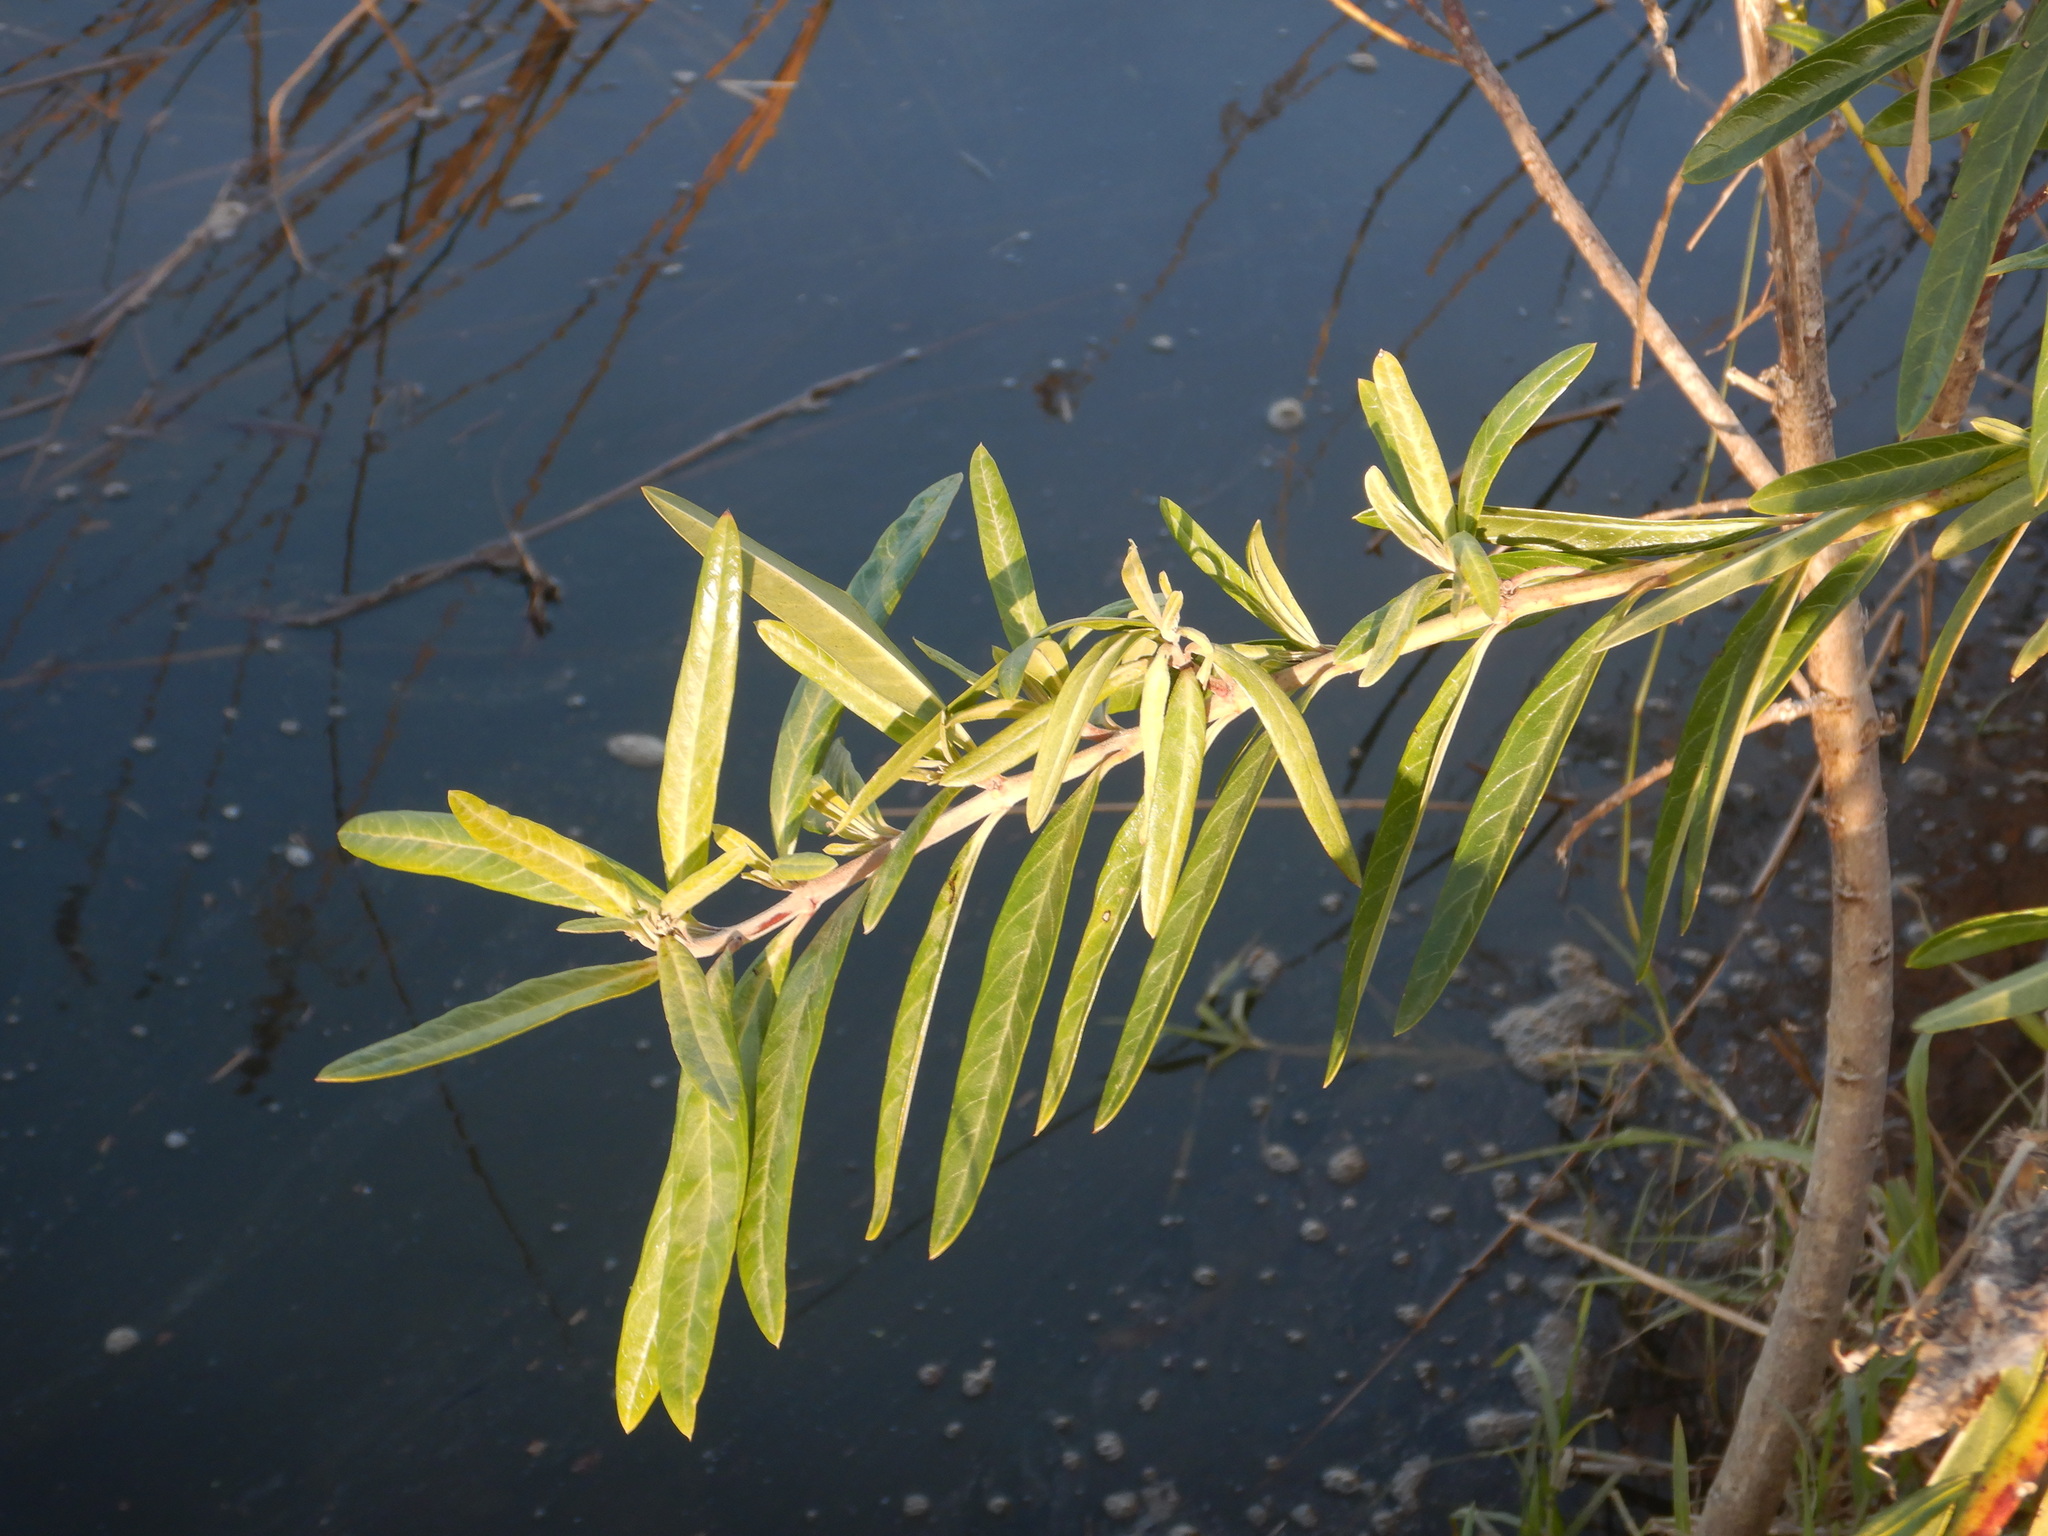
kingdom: Plantae
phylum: Tracheophyta
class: Magnoliopsida
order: Gentianales
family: Apocynaceae
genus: Gomphocarpus
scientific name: Gomphocarpus physocarpus
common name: Balloon cotton bush
